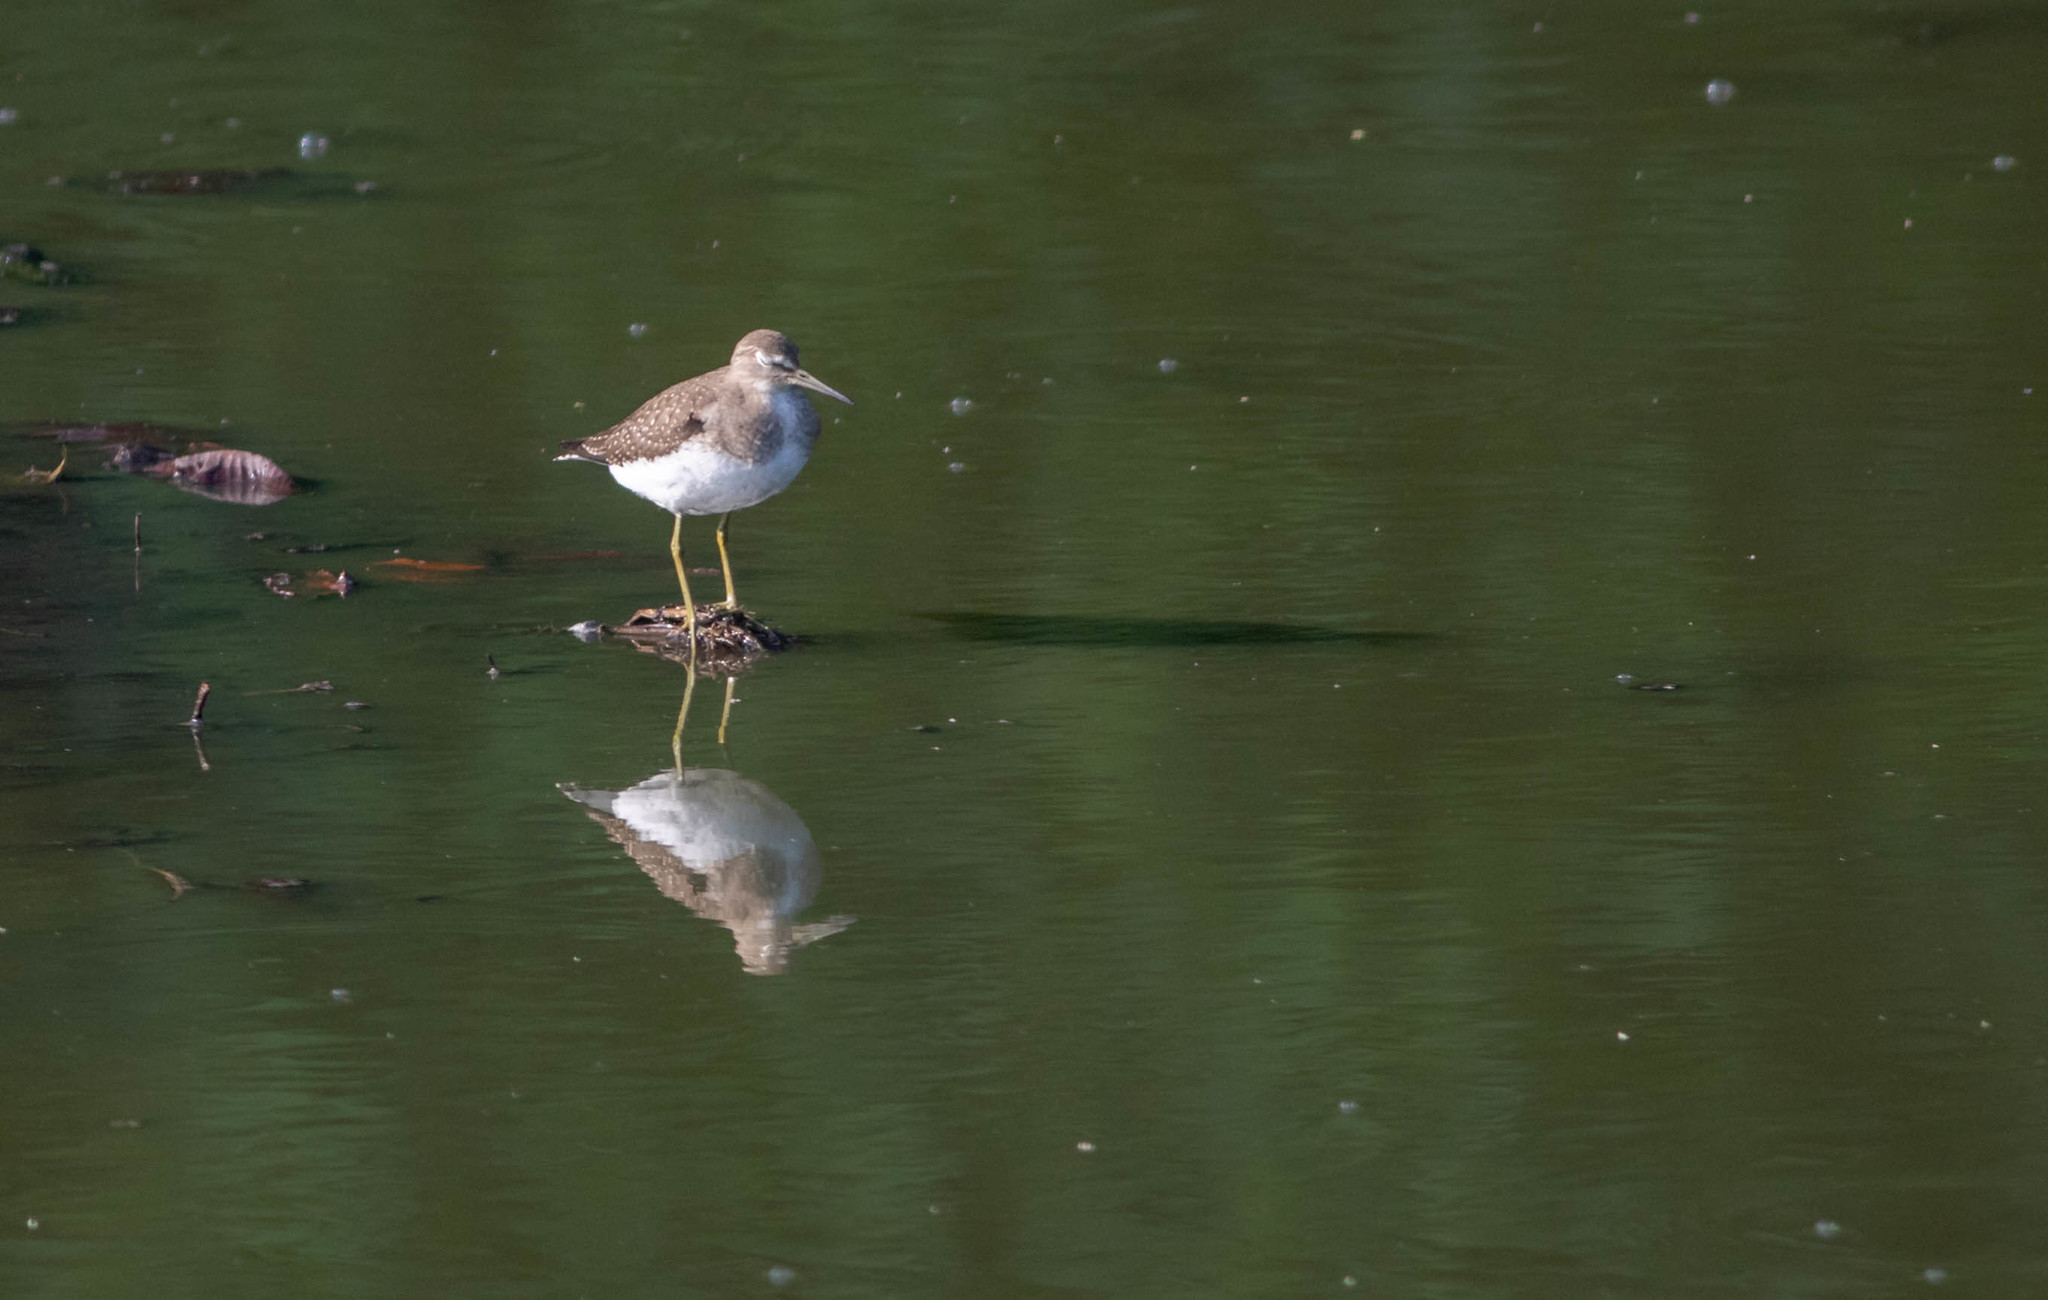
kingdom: Animalia
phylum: Chordata
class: Aves
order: Charadriiformes
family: Scolopacidae
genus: Tringa
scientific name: Tringa solitaria
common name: Solitary sandpiper
